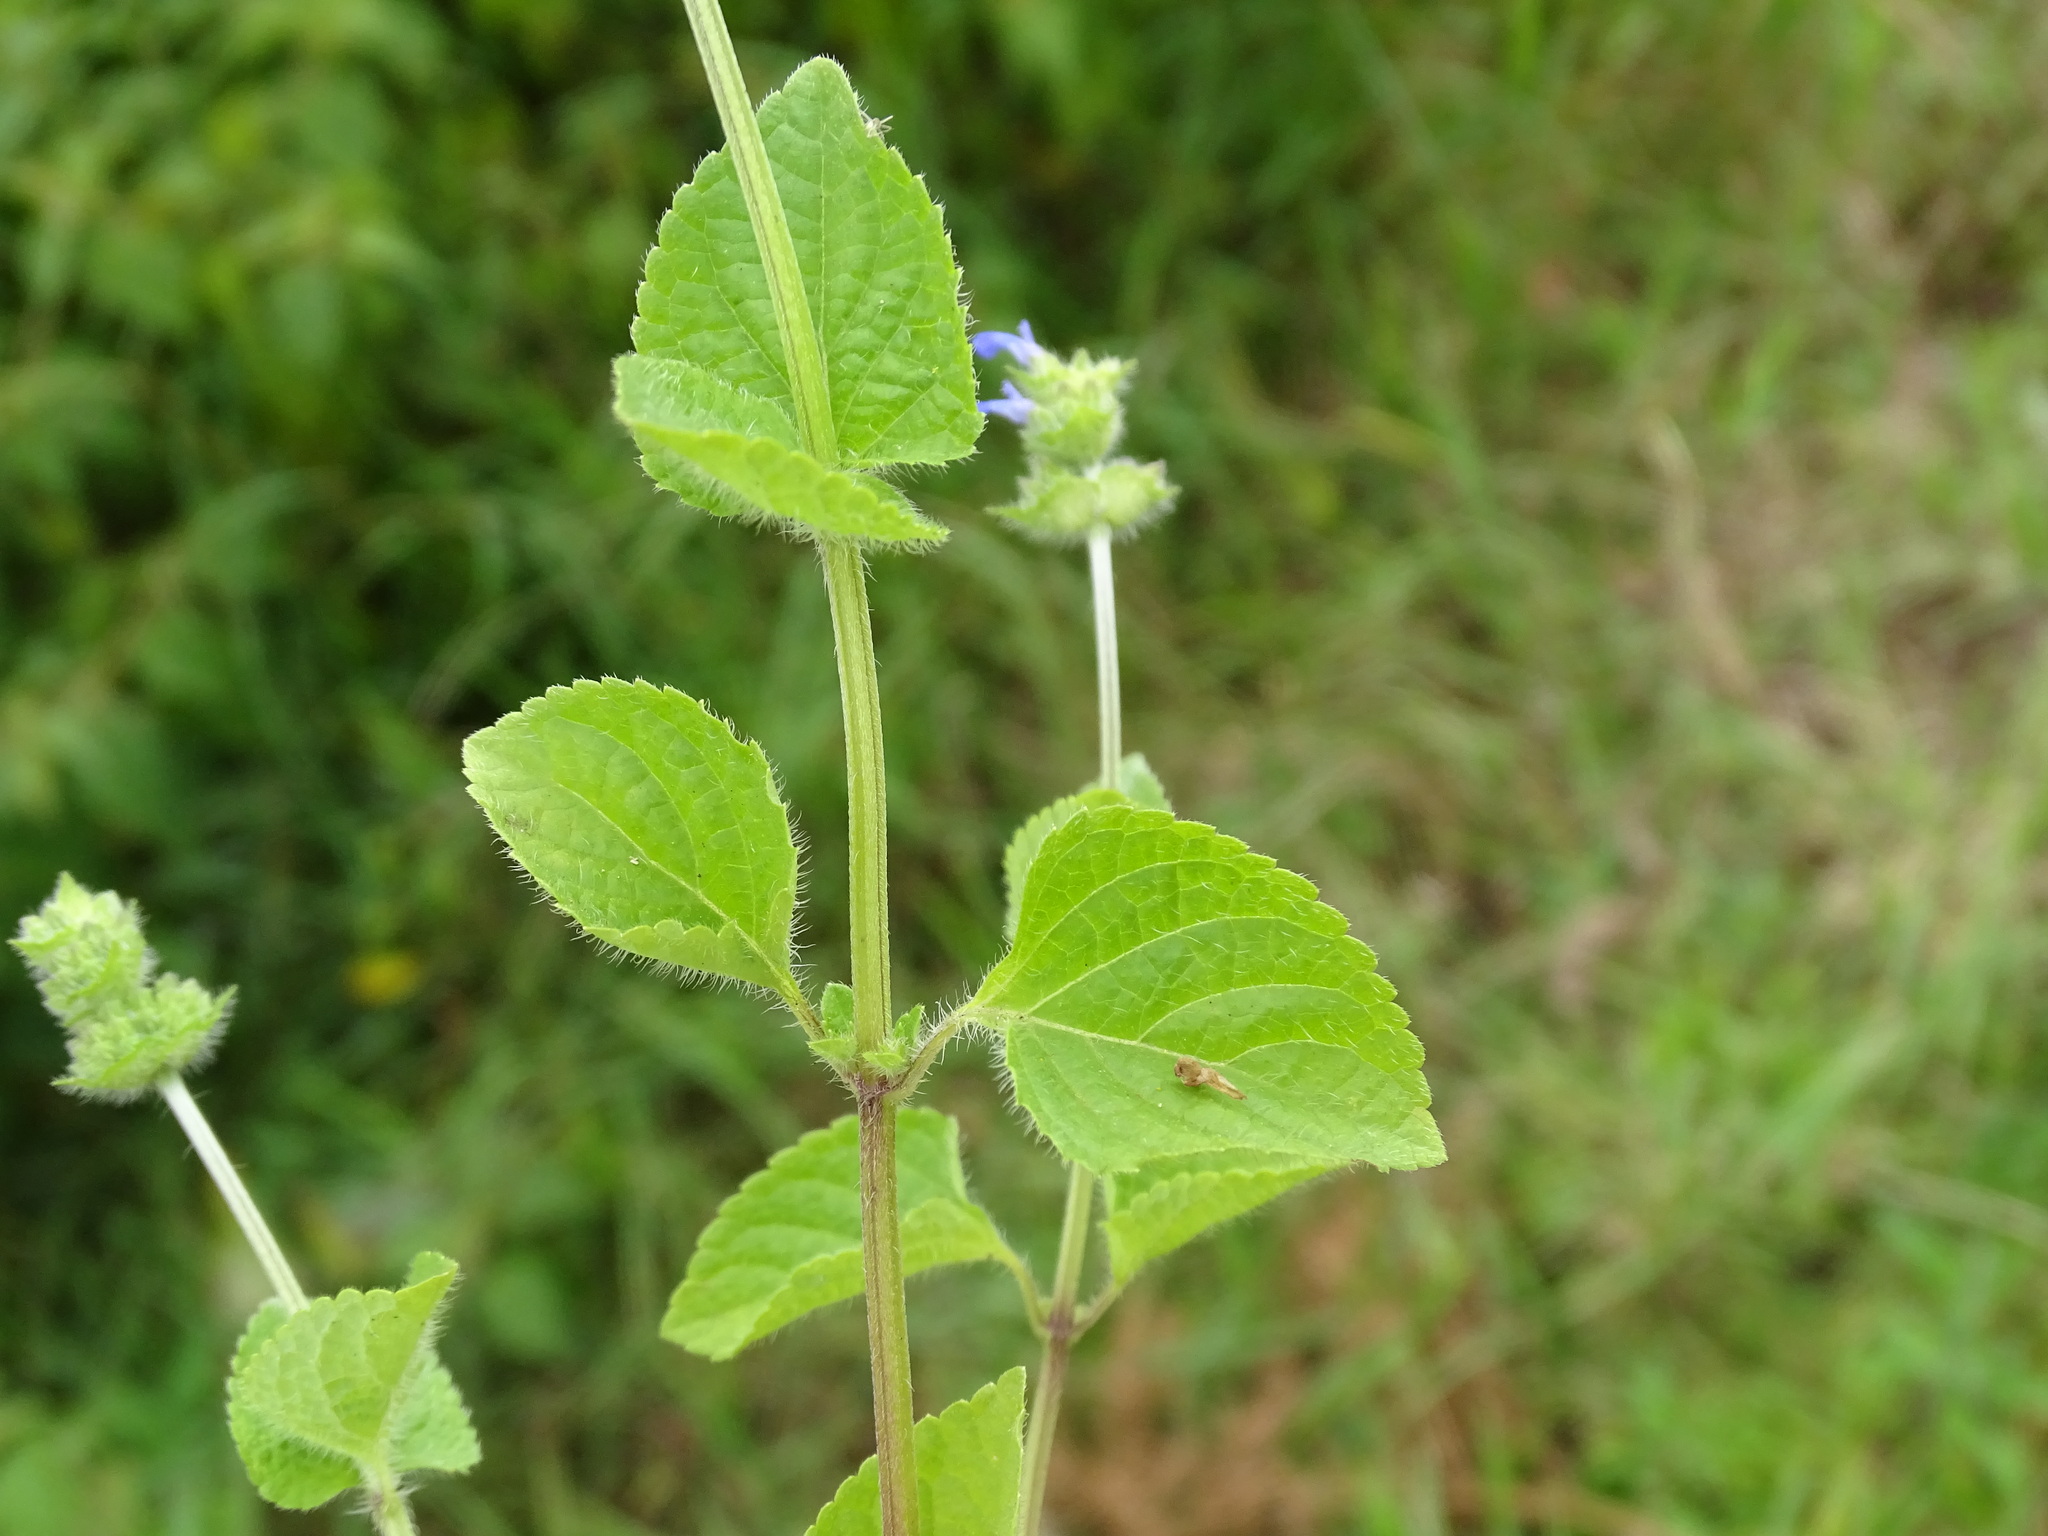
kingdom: Plantae
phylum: Tracheophyta
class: Magnoliopsida
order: Lamiales
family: Lamiaceae
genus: Salvia
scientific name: Salvia lasiocephala
